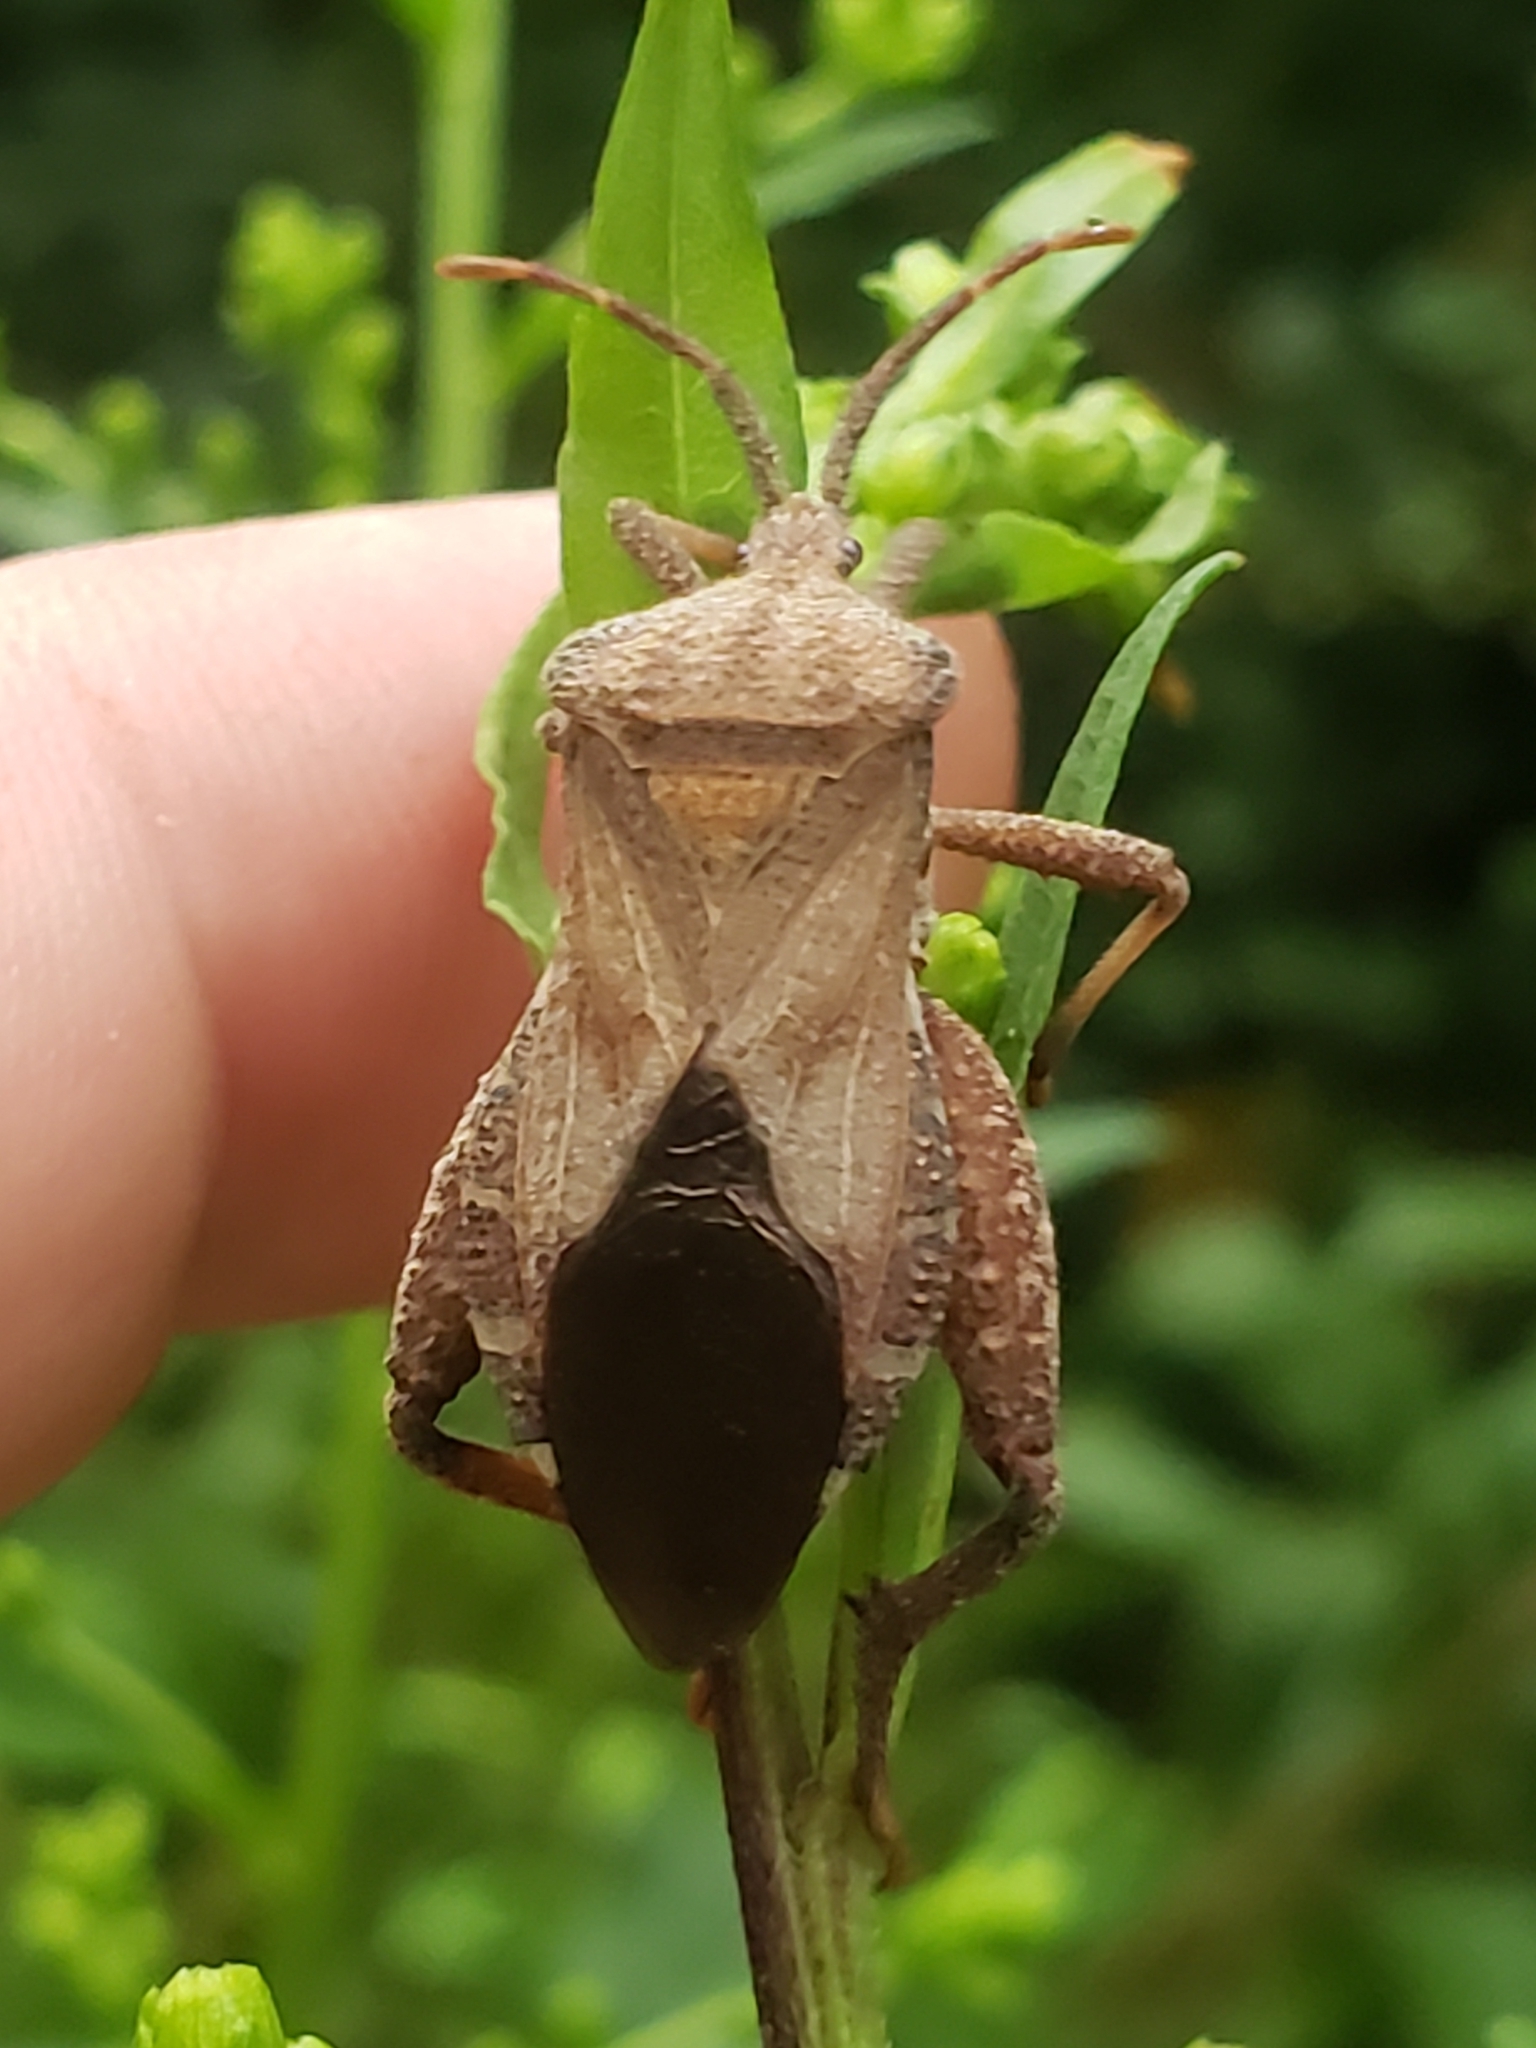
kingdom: Animalia
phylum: Arthropoda
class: Insecta
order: Hemiptera
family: Coreidae
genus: Piezogaster
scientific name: Piezogaster calcarator
